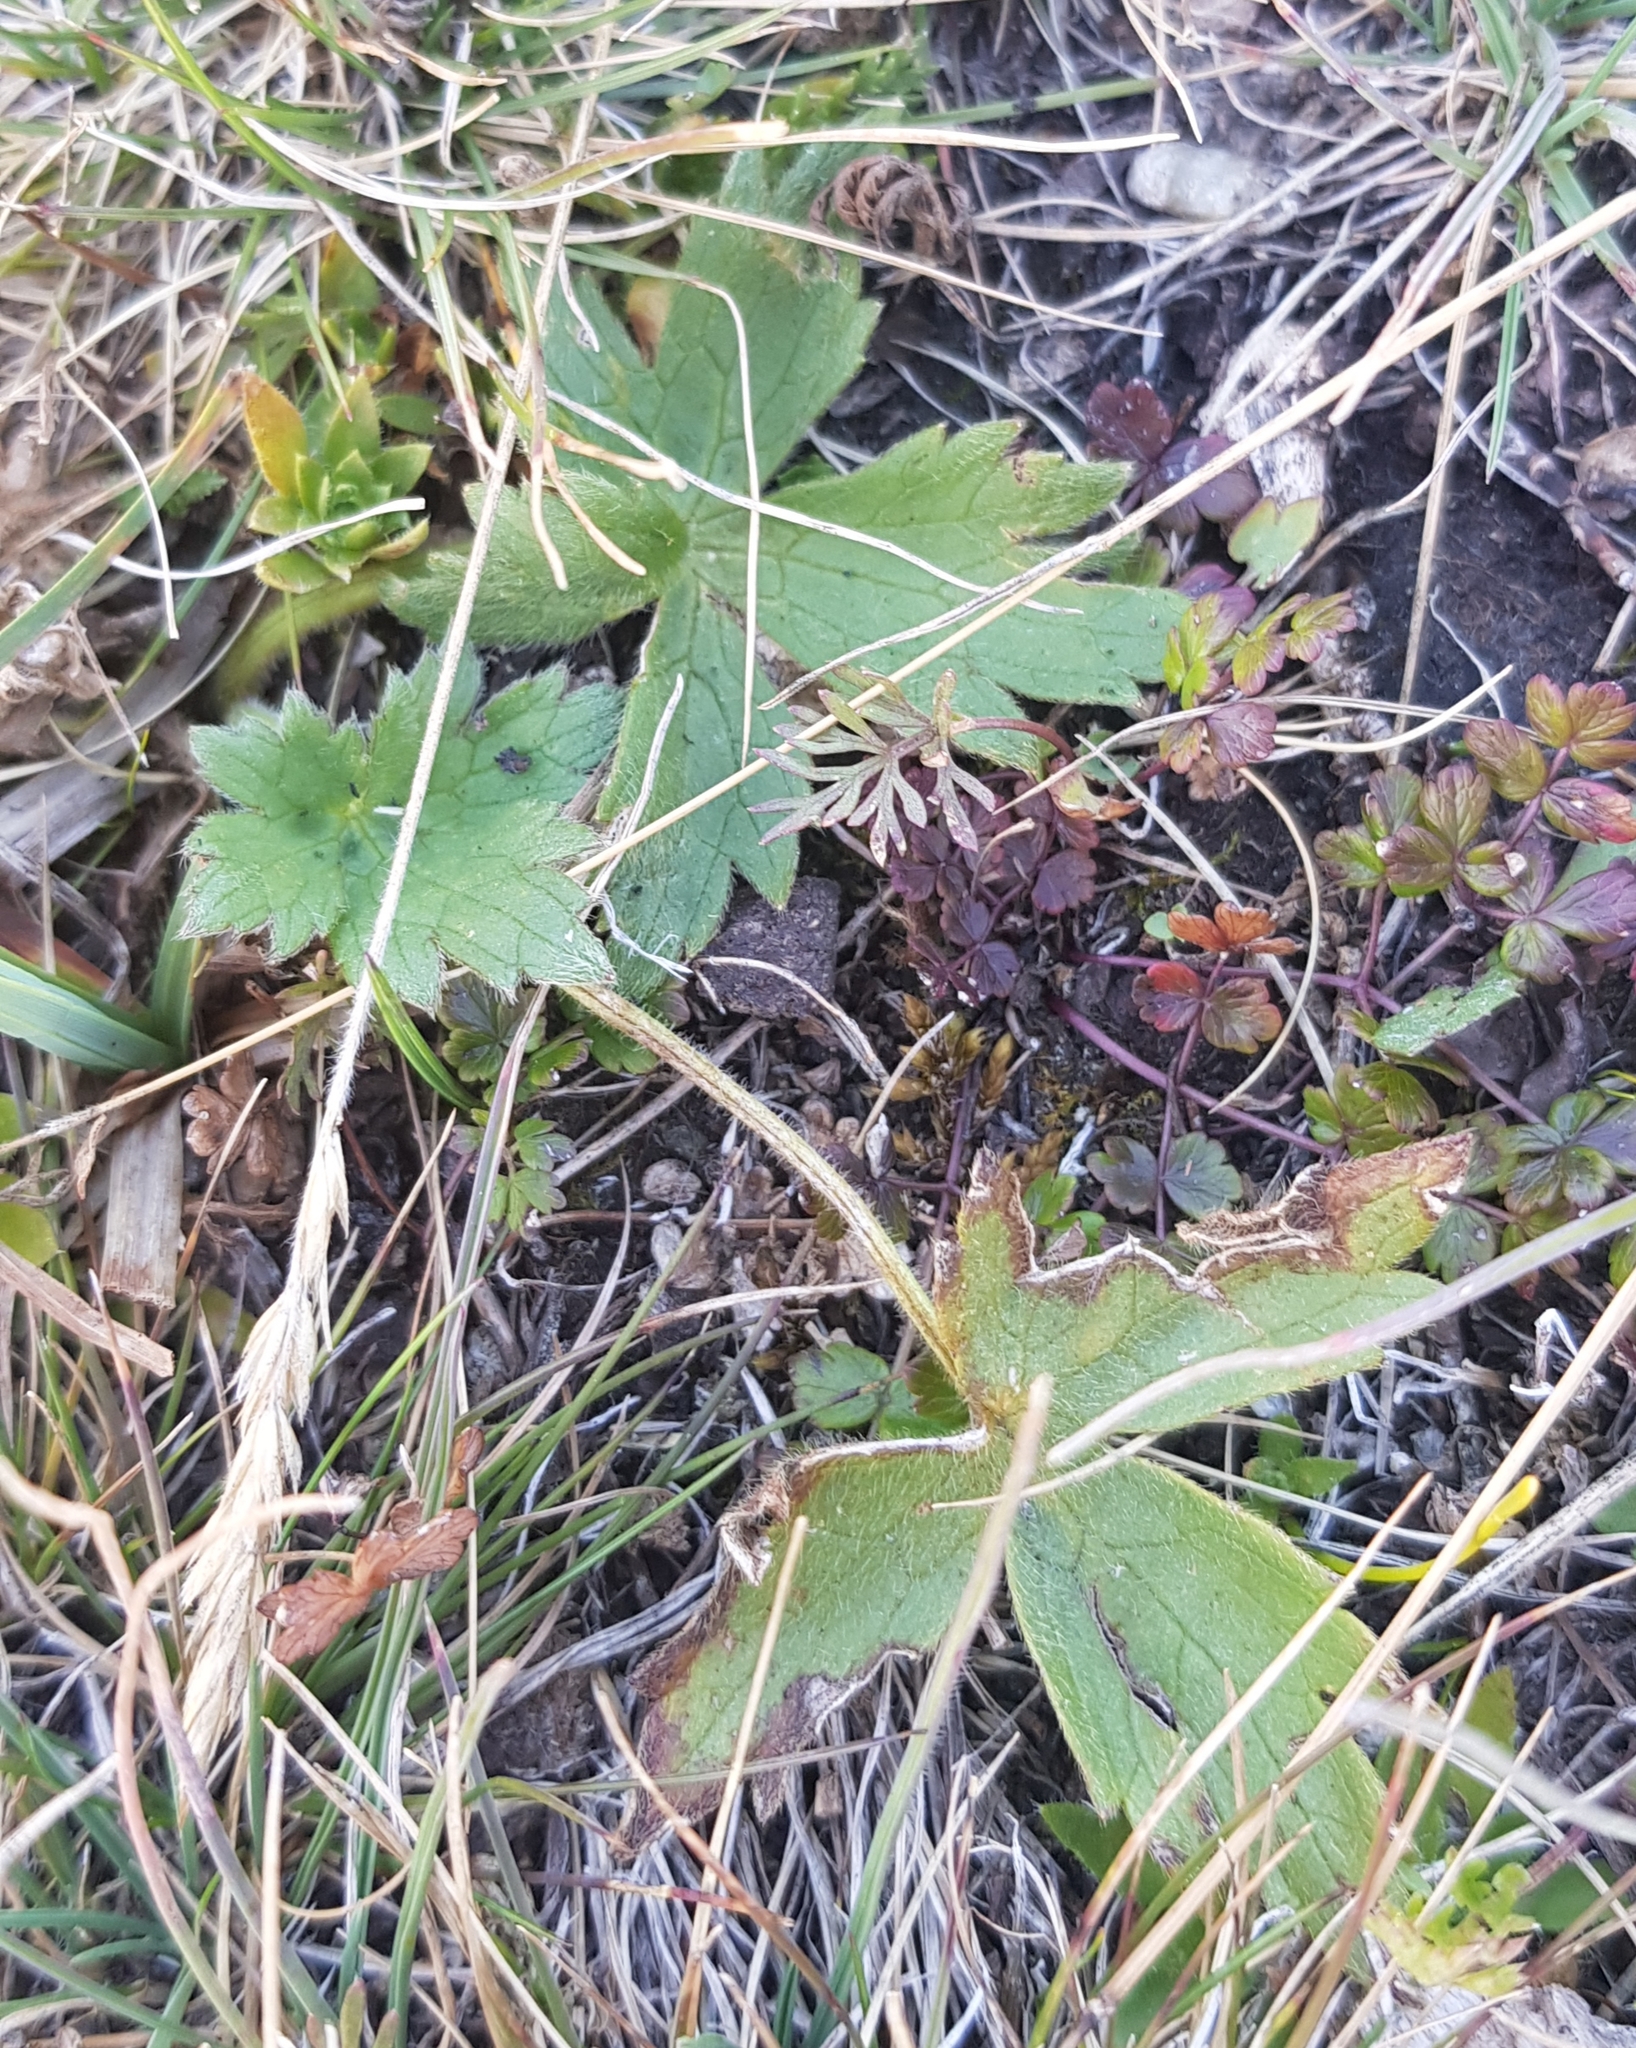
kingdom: Plantae
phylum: Tracheophyta
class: Magnoliopsida
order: Ranunculales
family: Ranunculaceae
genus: Ranunculus
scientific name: Ranunculus propinquus
